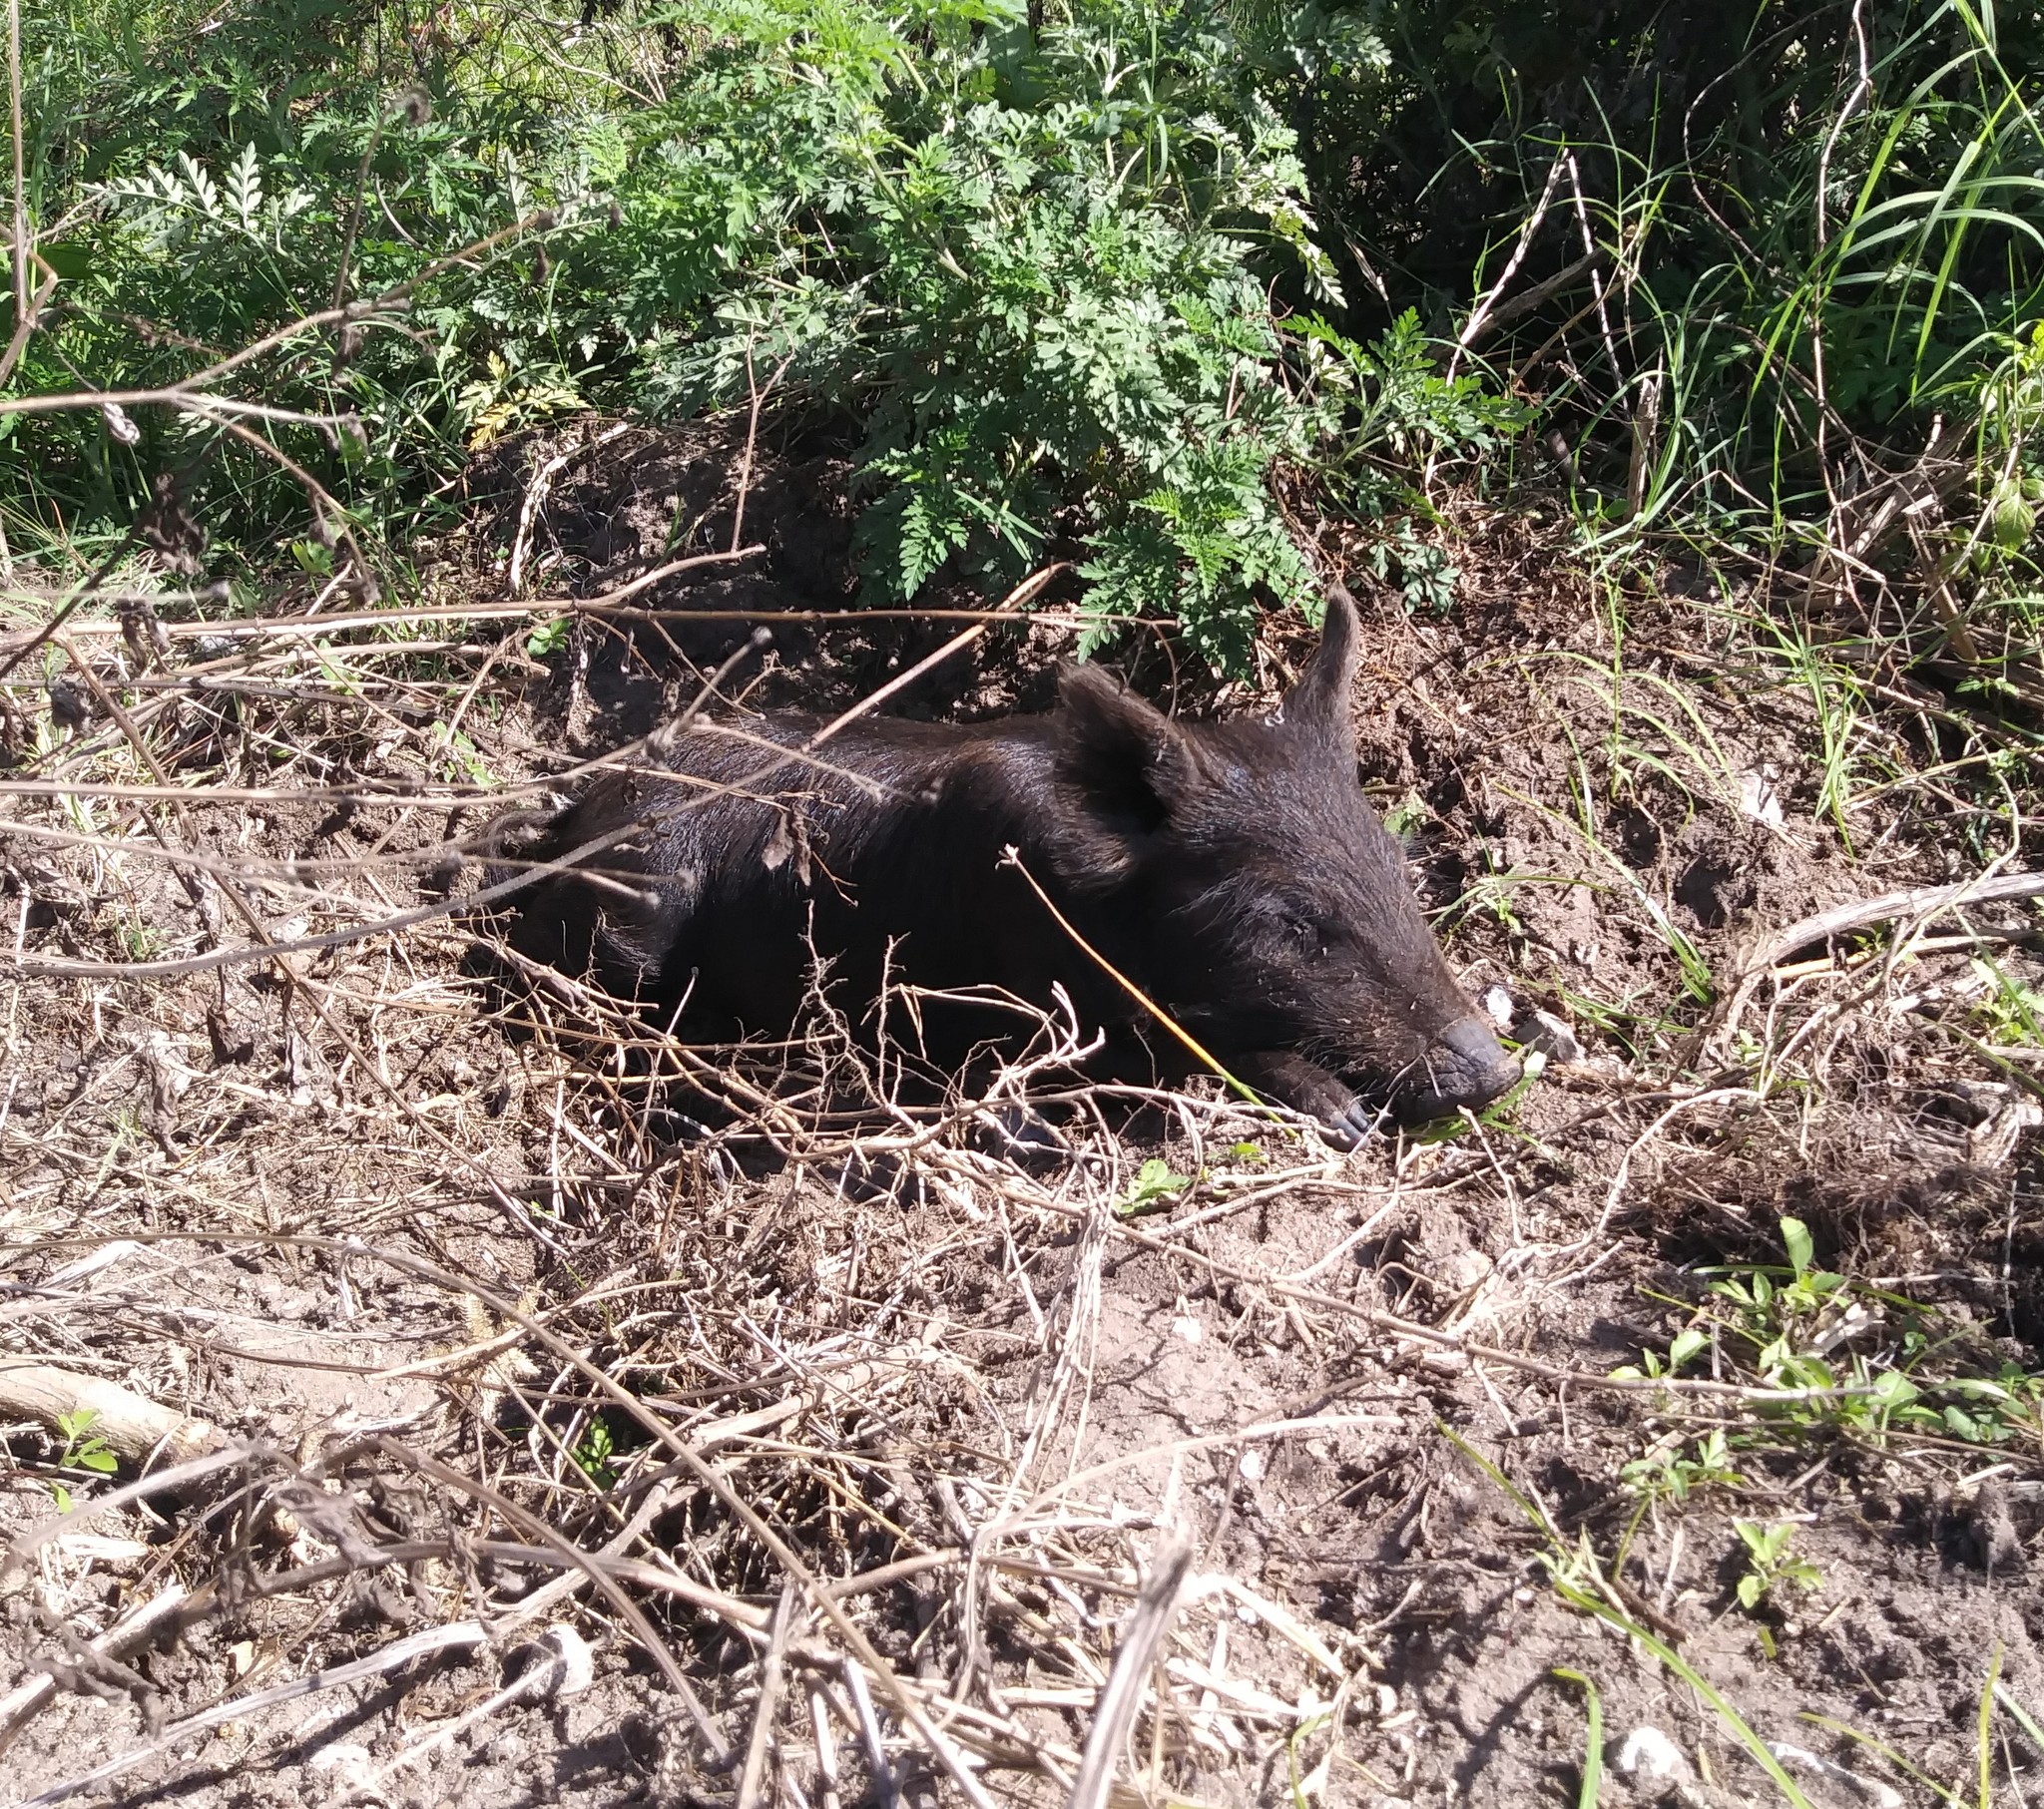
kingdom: Animalia
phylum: Chordata
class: Mammalia
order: Artiodactyla
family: Suidae
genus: Sus
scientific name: Sus scrofa
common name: Wild boar
